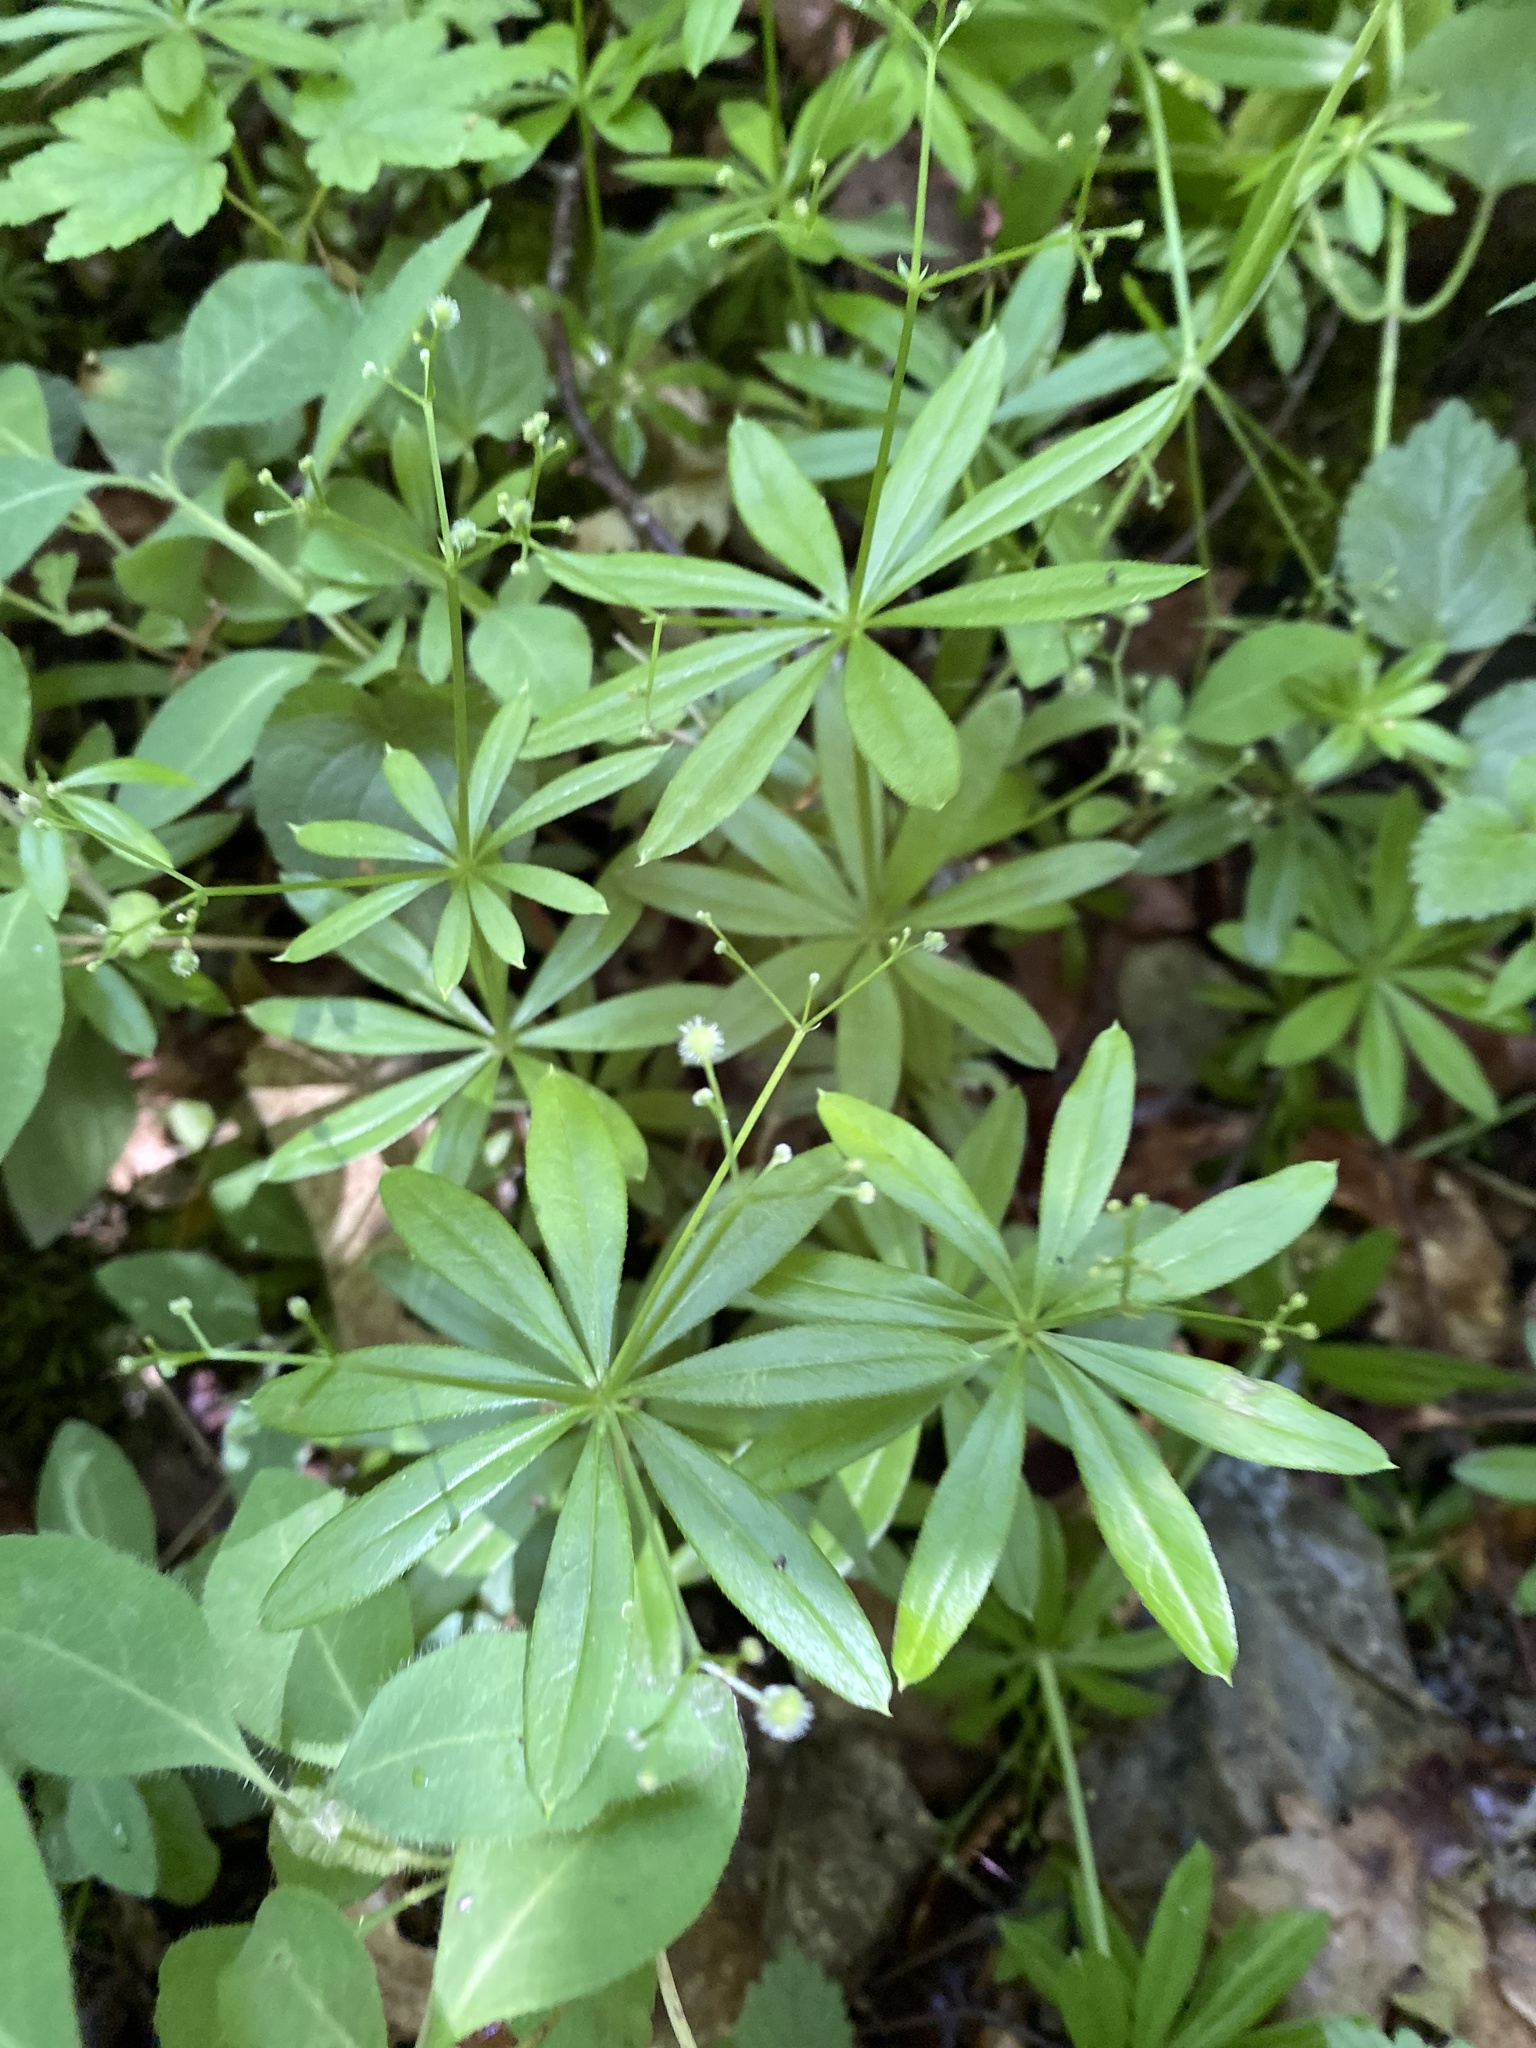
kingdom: Plantae
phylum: Tracheophyta
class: Magnoliopsida
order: Gentianales
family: Rubiaceae
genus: Galium
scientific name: Galium odoratum
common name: Sweet woodruff
